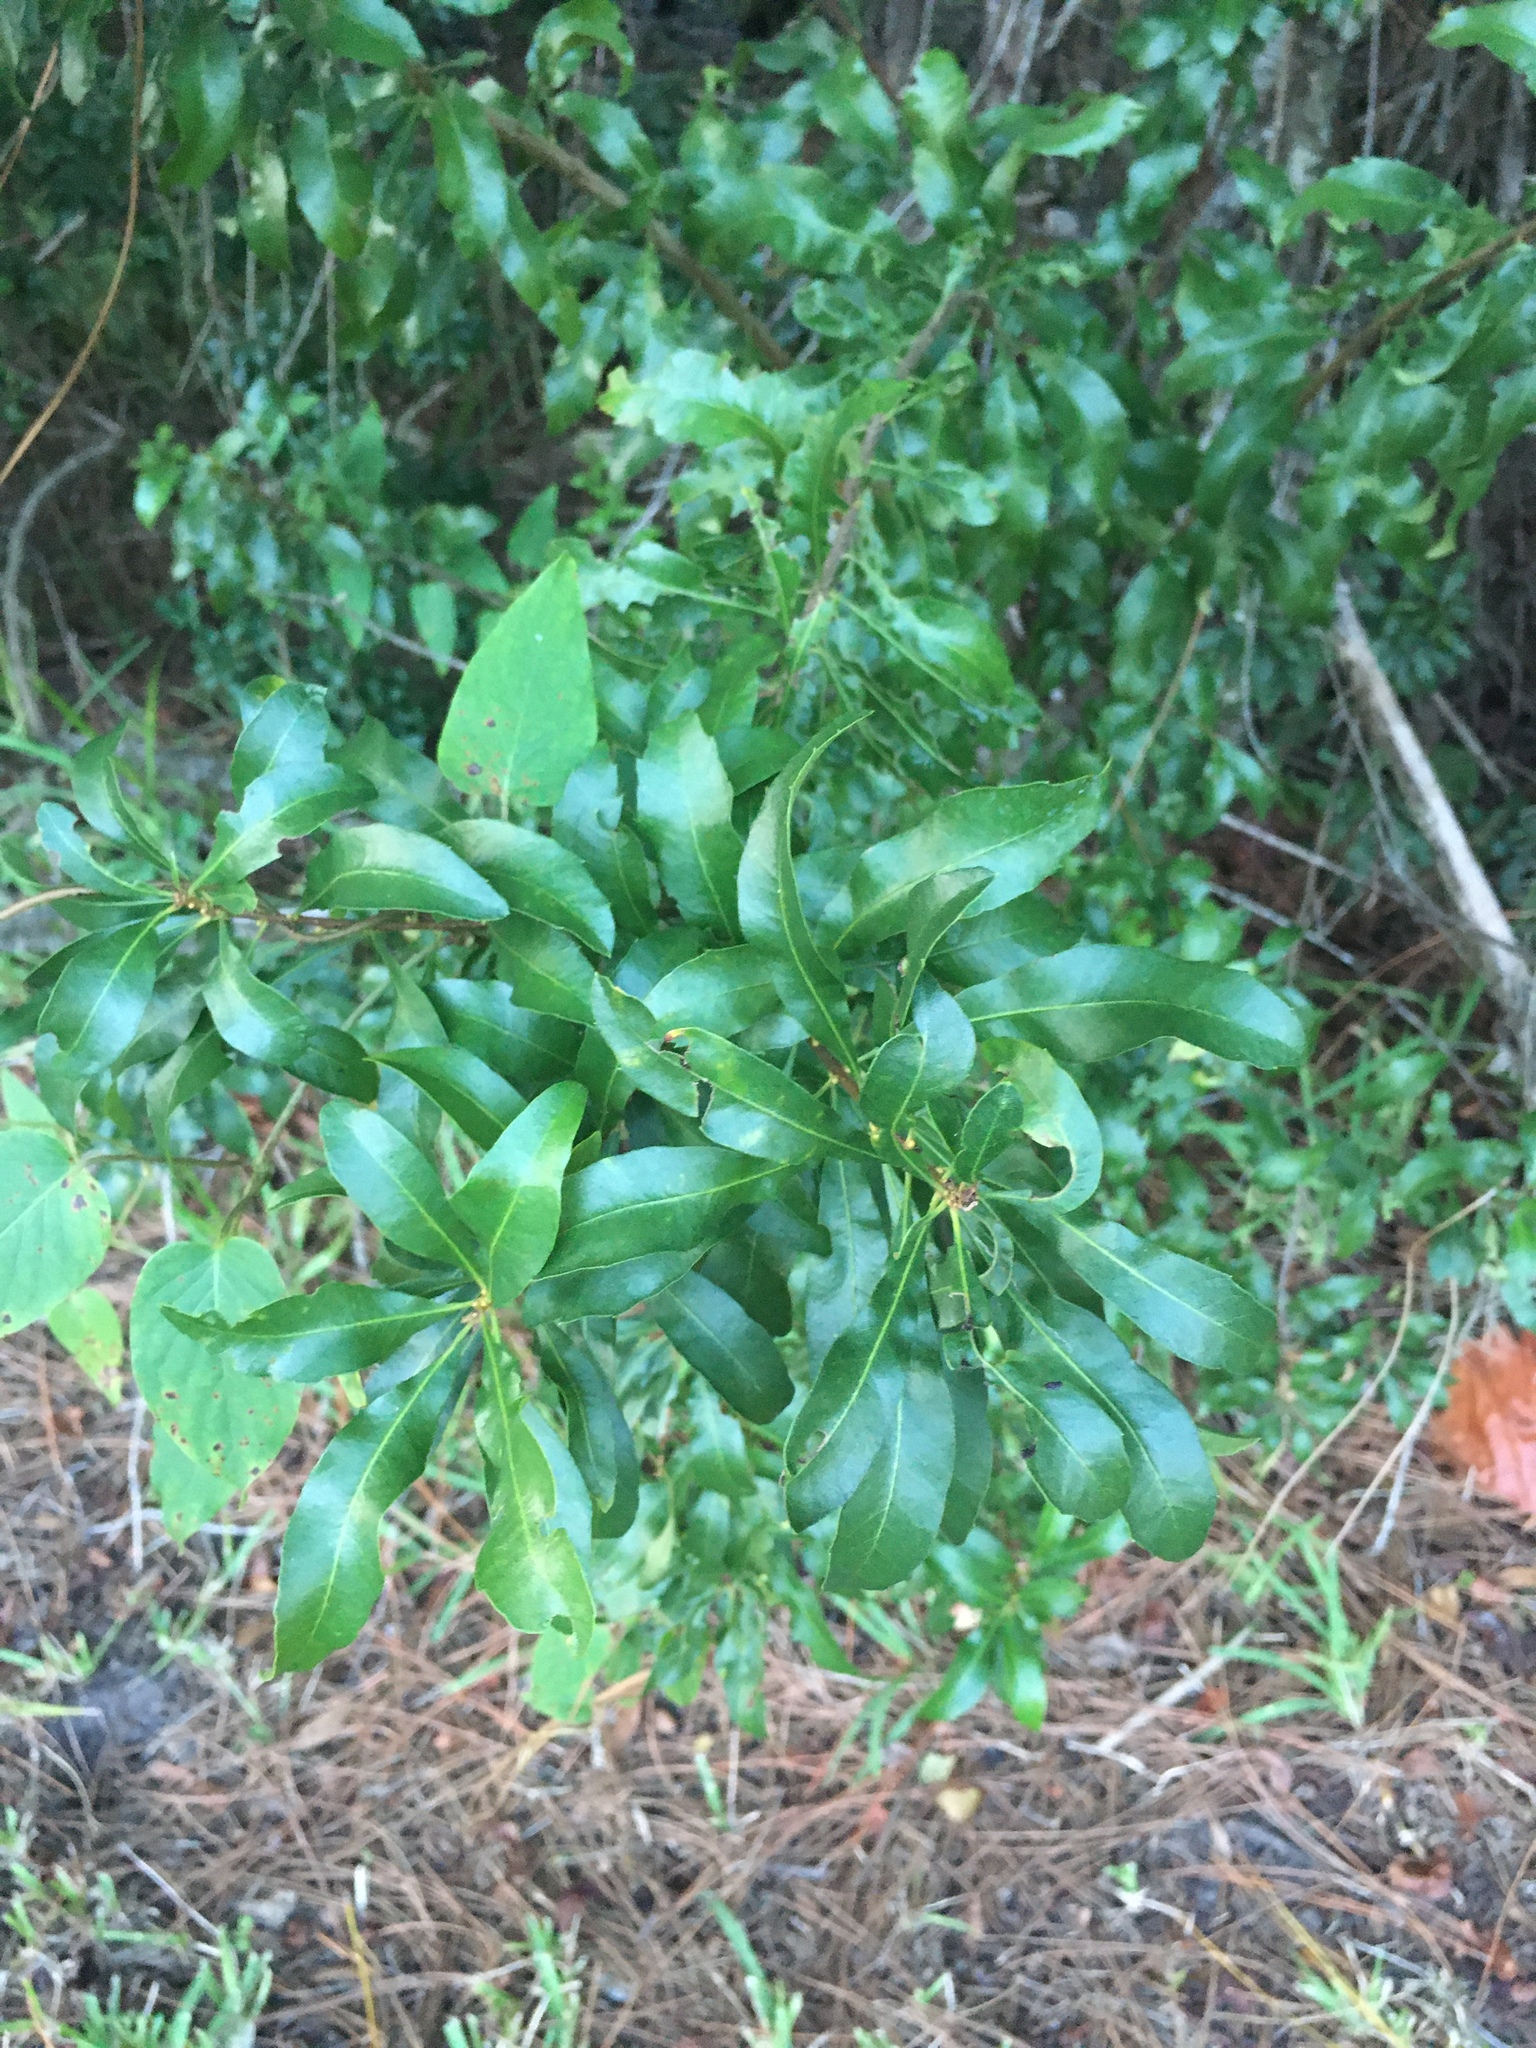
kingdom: Plantae
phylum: Tracheophyta
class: Magnoliopsida
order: Fagales
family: Myricaceae
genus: Morella
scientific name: Morella cerifera
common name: Wax myrtle
